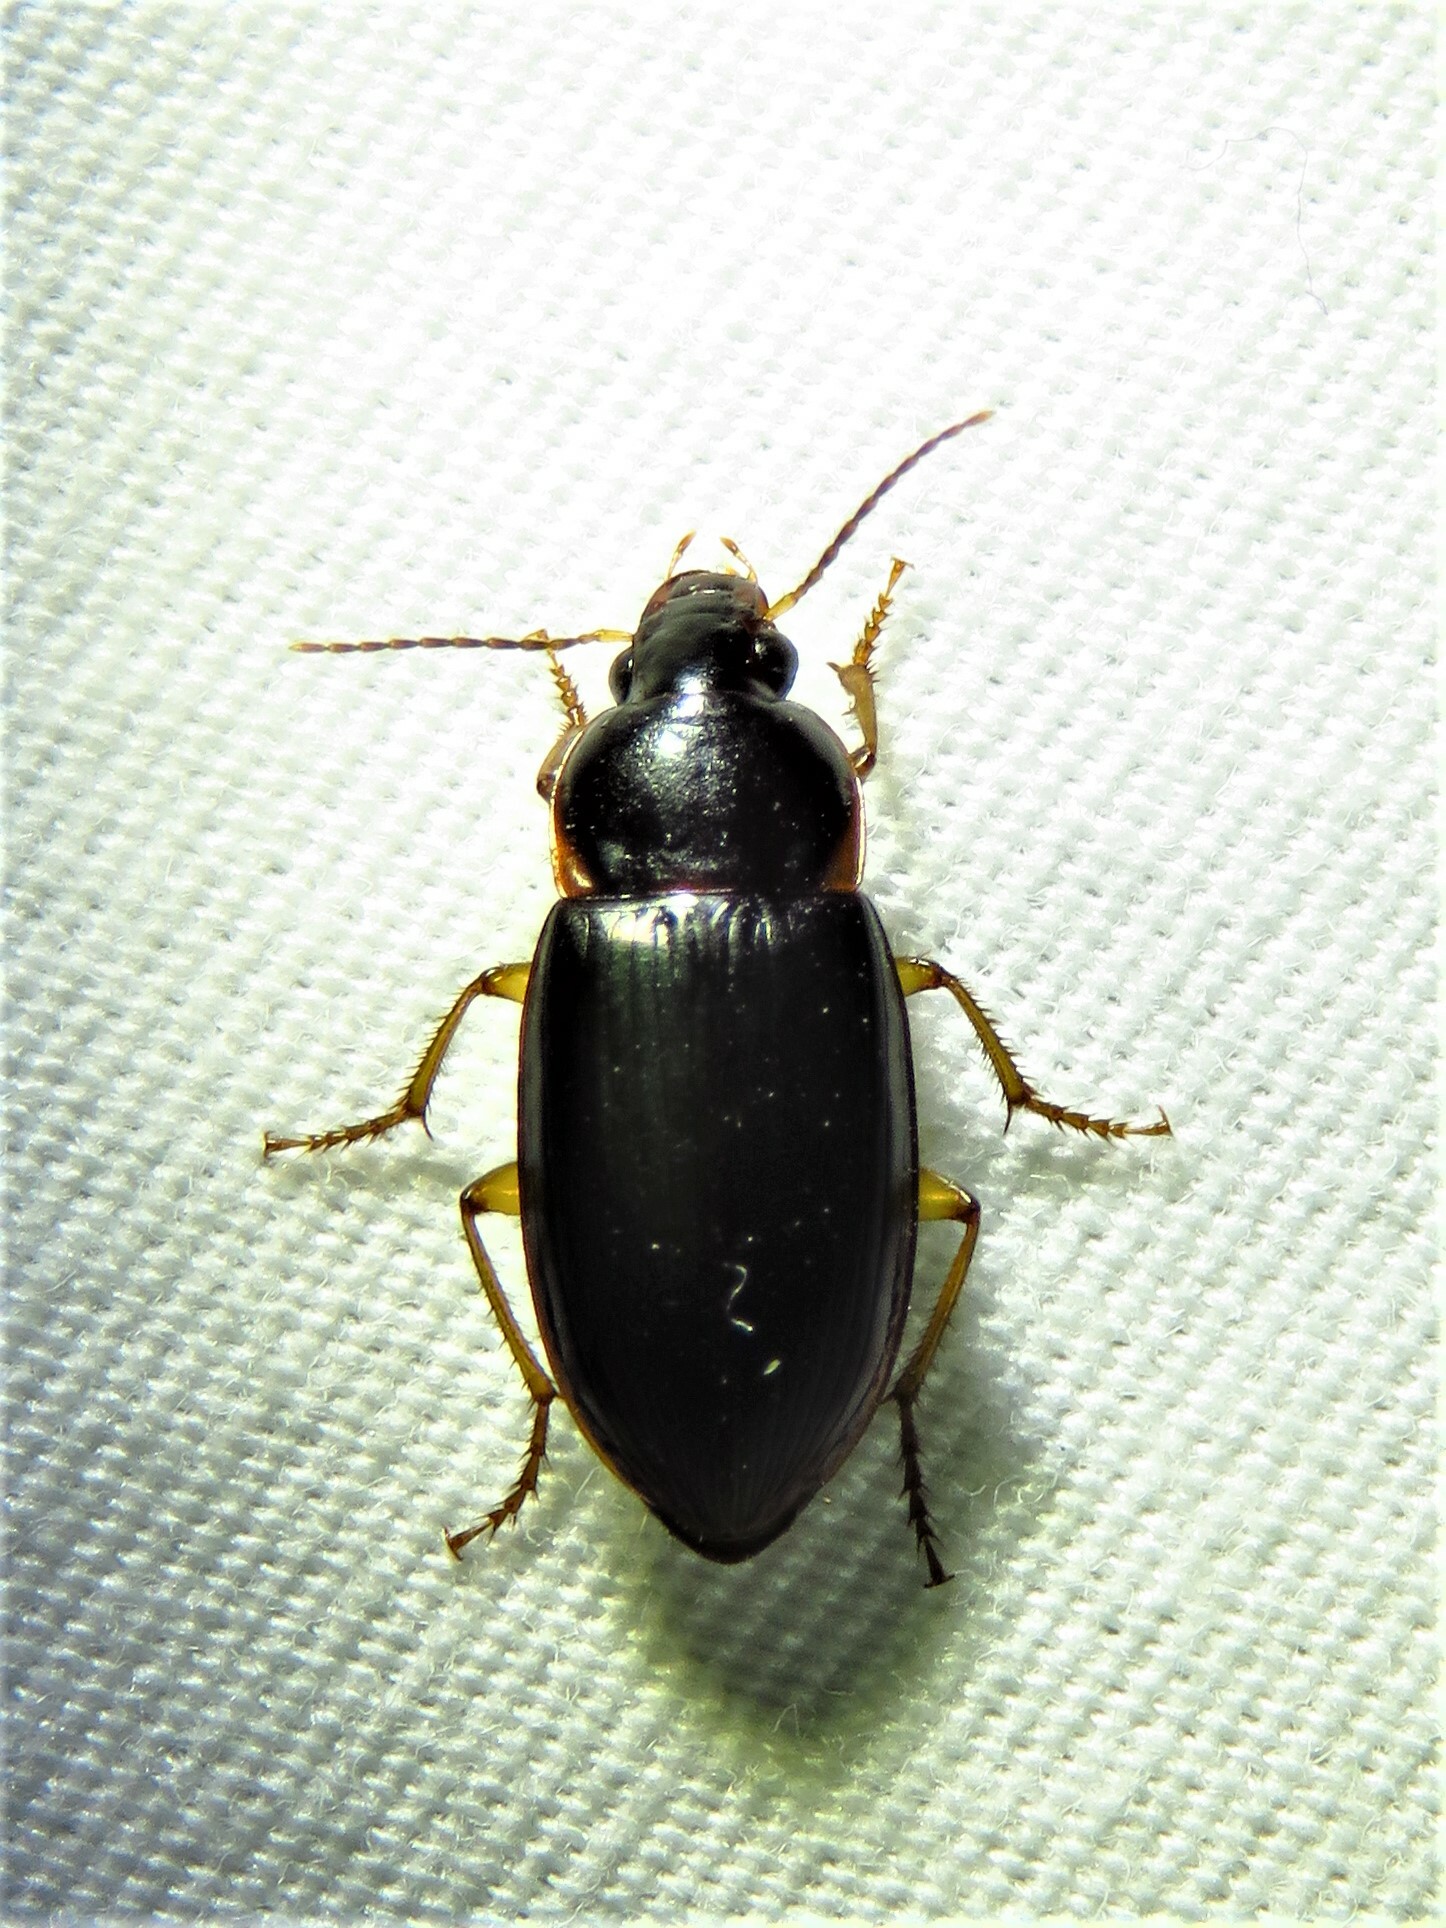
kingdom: Animalia
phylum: Arthropoda
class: Insecta
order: Coleoptera
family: Carabidae
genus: Notiobia
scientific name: Notiobia terminata
